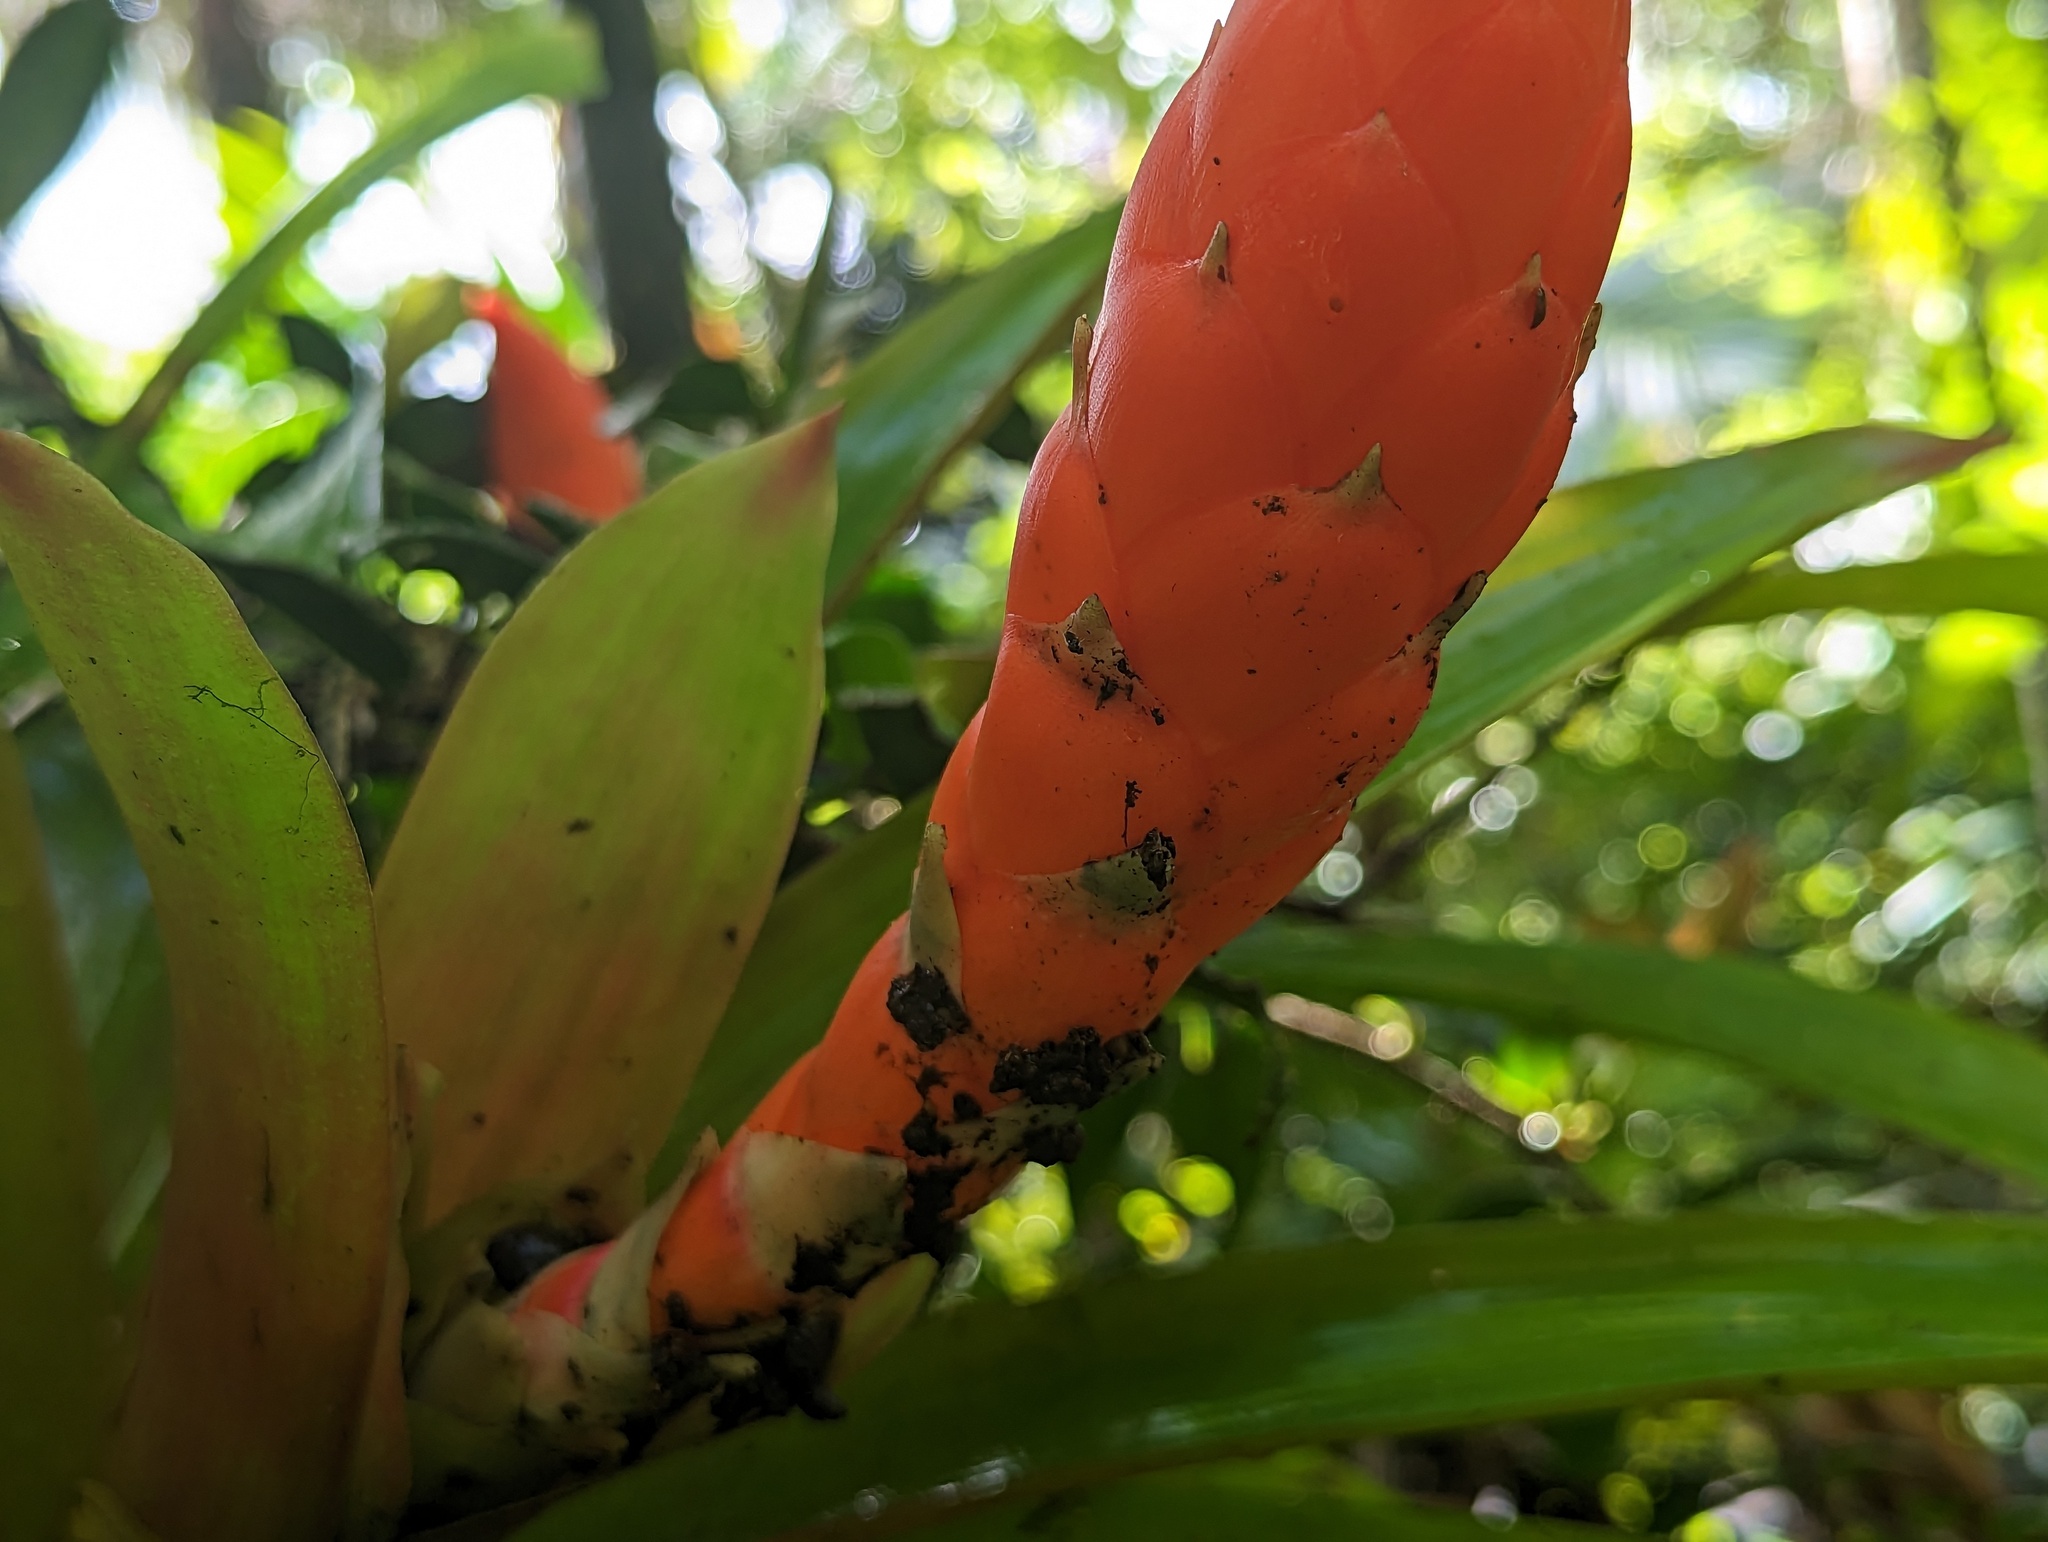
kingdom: Plantae
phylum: Tracheophyta
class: Liliopsida
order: Poales
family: Bromeliaceae
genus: Guzmania
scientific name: Guzmania berteroniana
